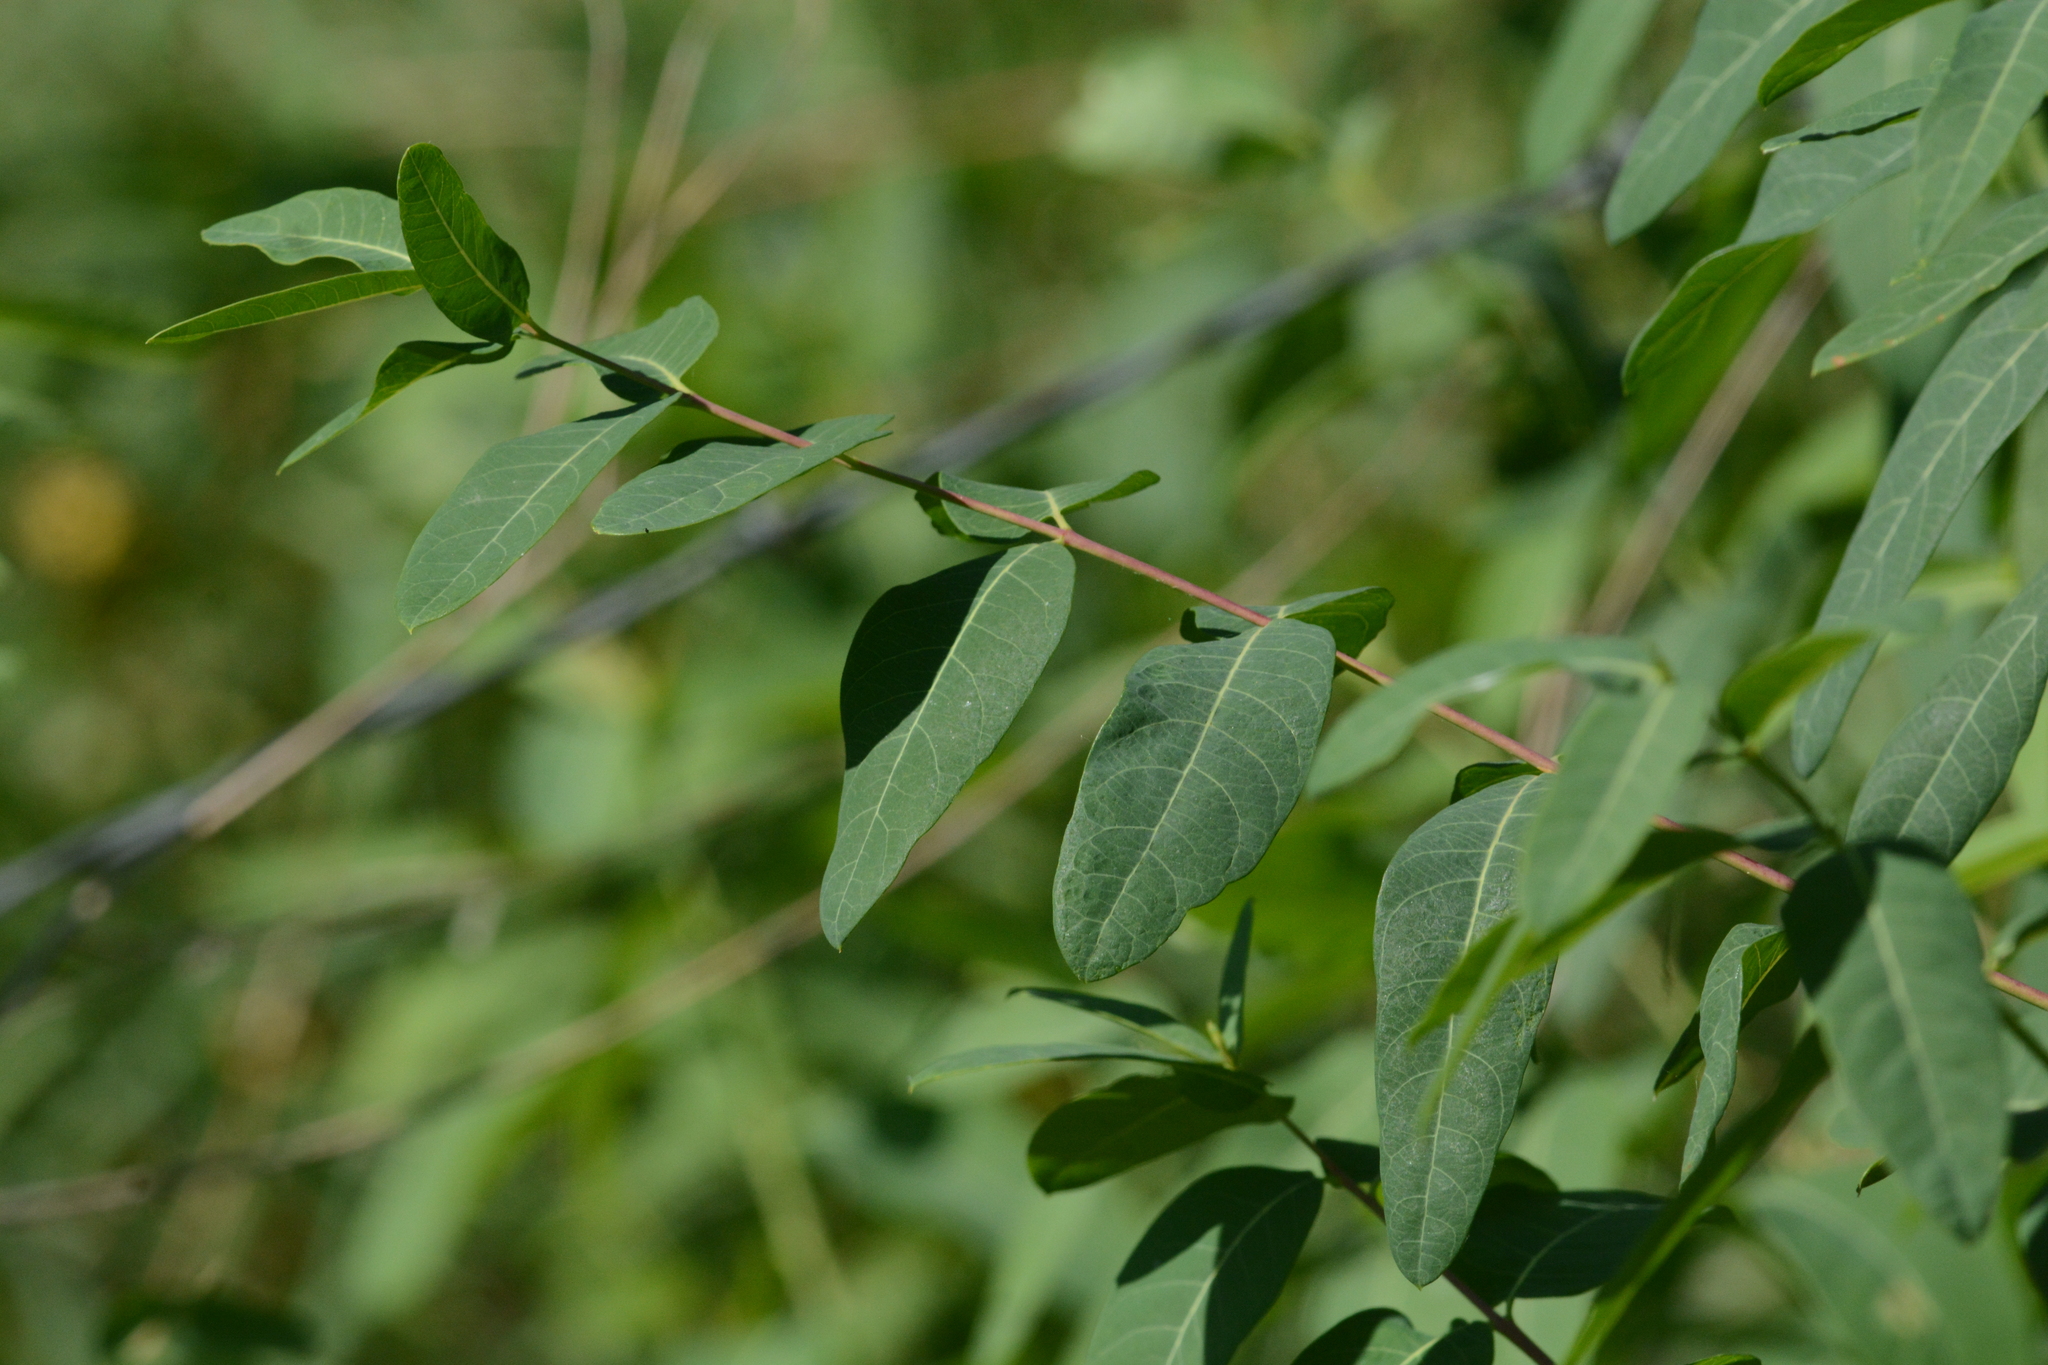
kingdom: Plantae
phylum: Tracheophyta
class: Magnoliopsida
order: Gentianales
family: Apocynaceae
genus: Apocynum
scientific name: Apocynum cannabinum
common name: Hemp dogbane
